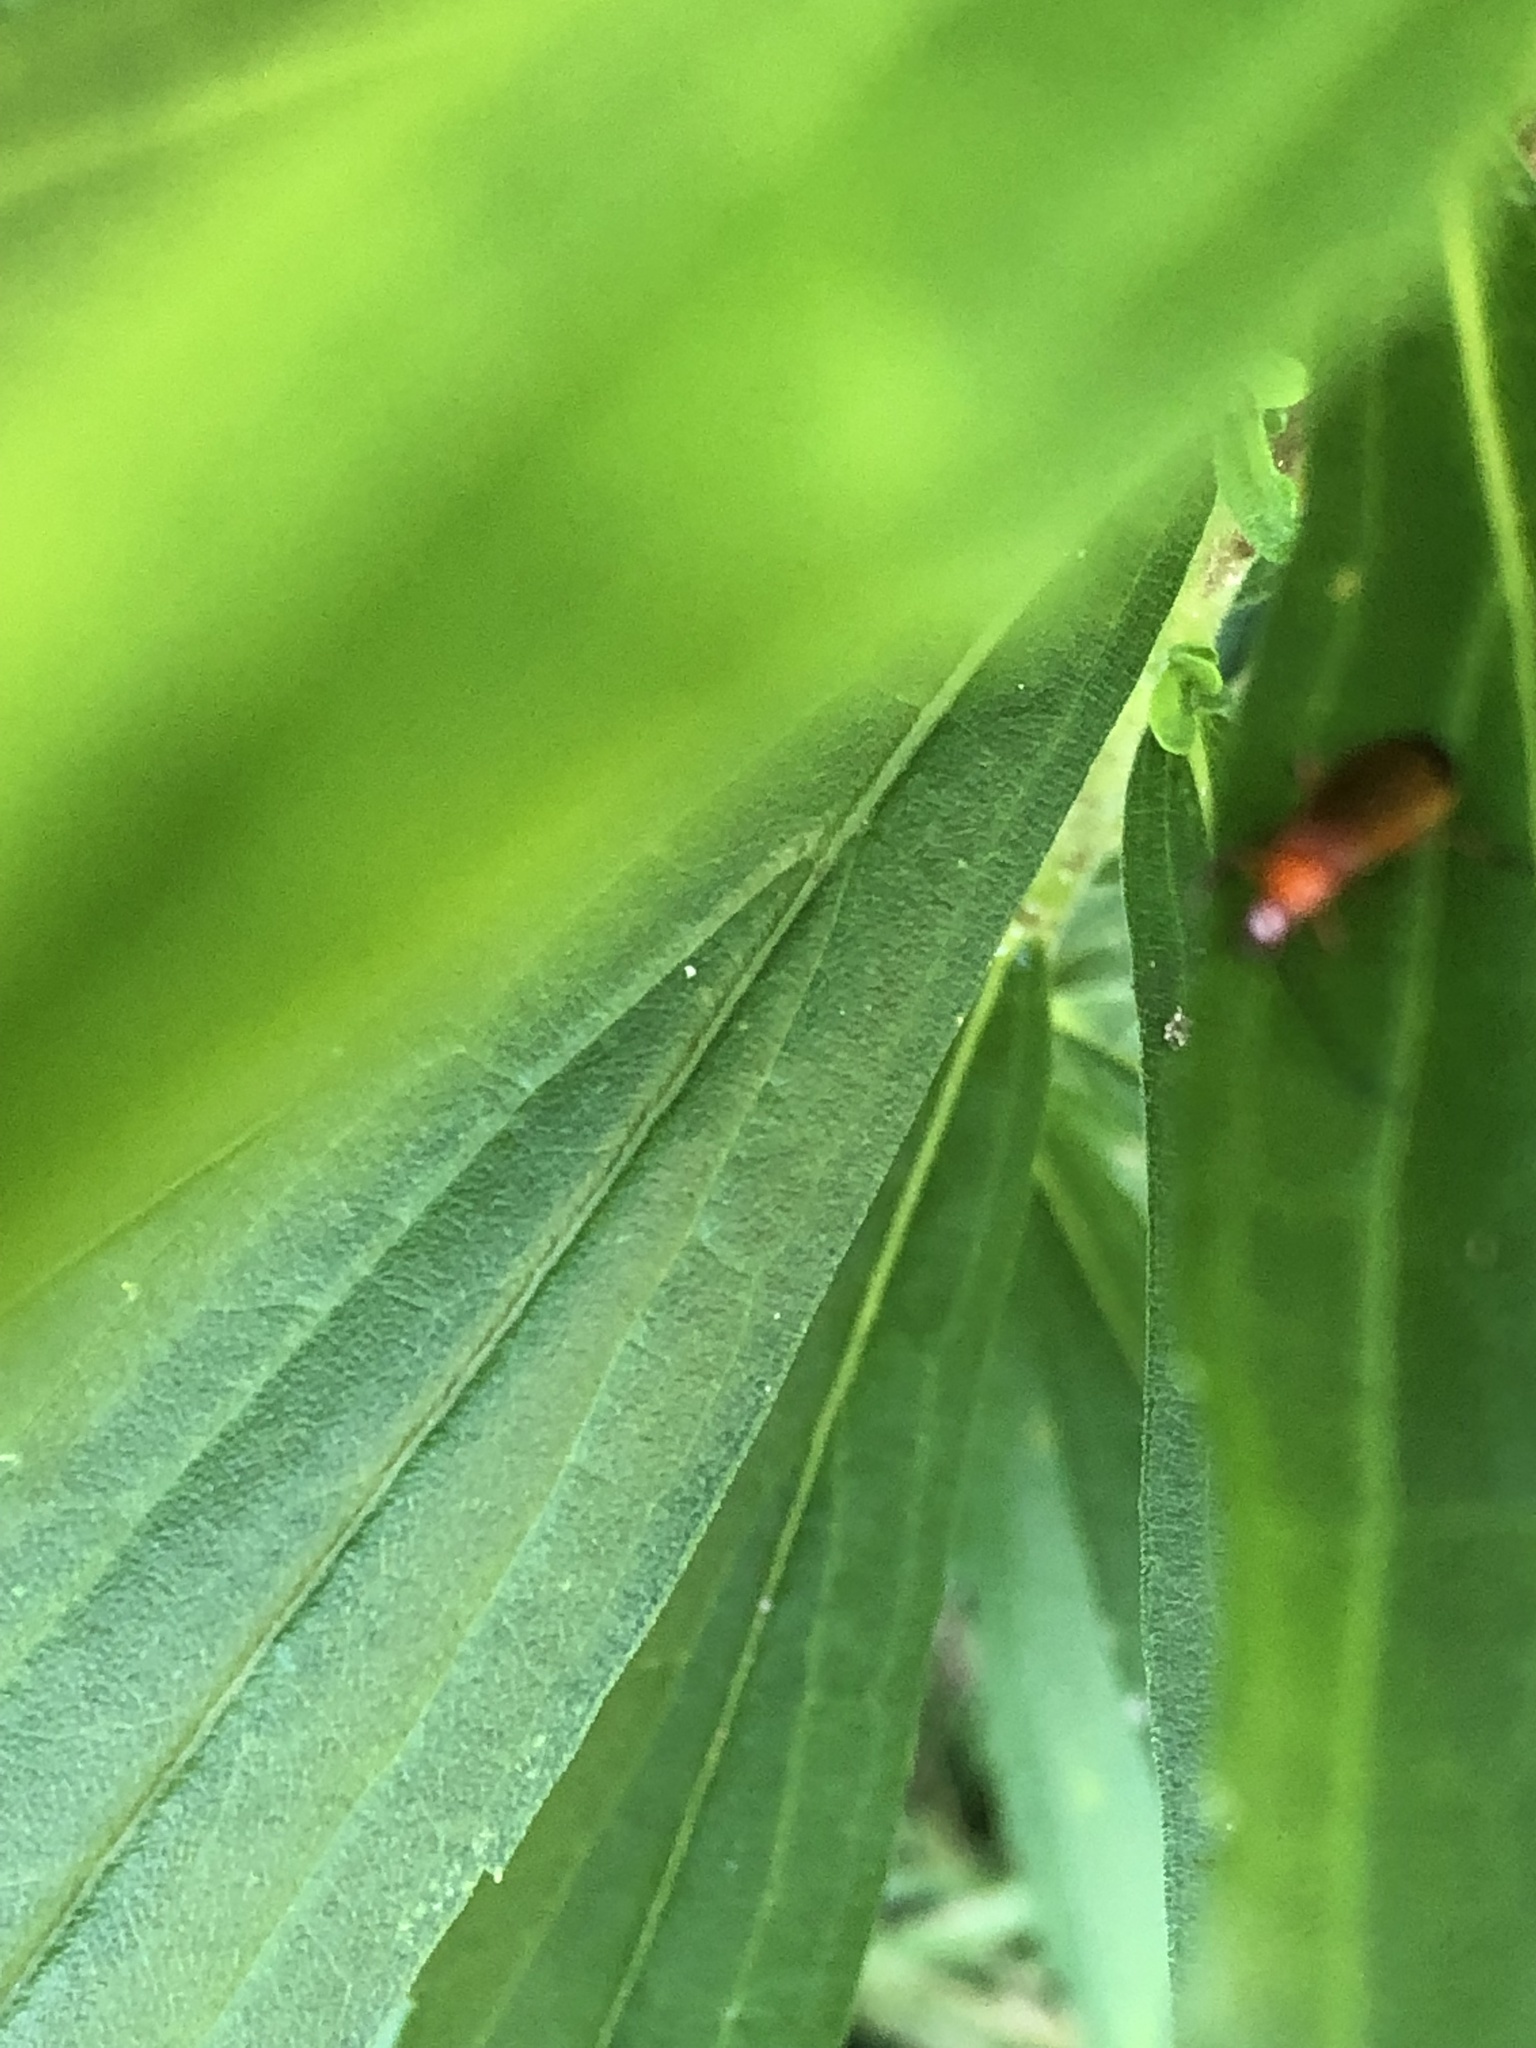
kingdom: Animalia
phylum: Arthropoda
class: Insecta
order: Coleoptera
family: Cantharidae
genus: Rhagonycha
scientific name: Rhagonycha fulva
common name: Common red soldier beetle
